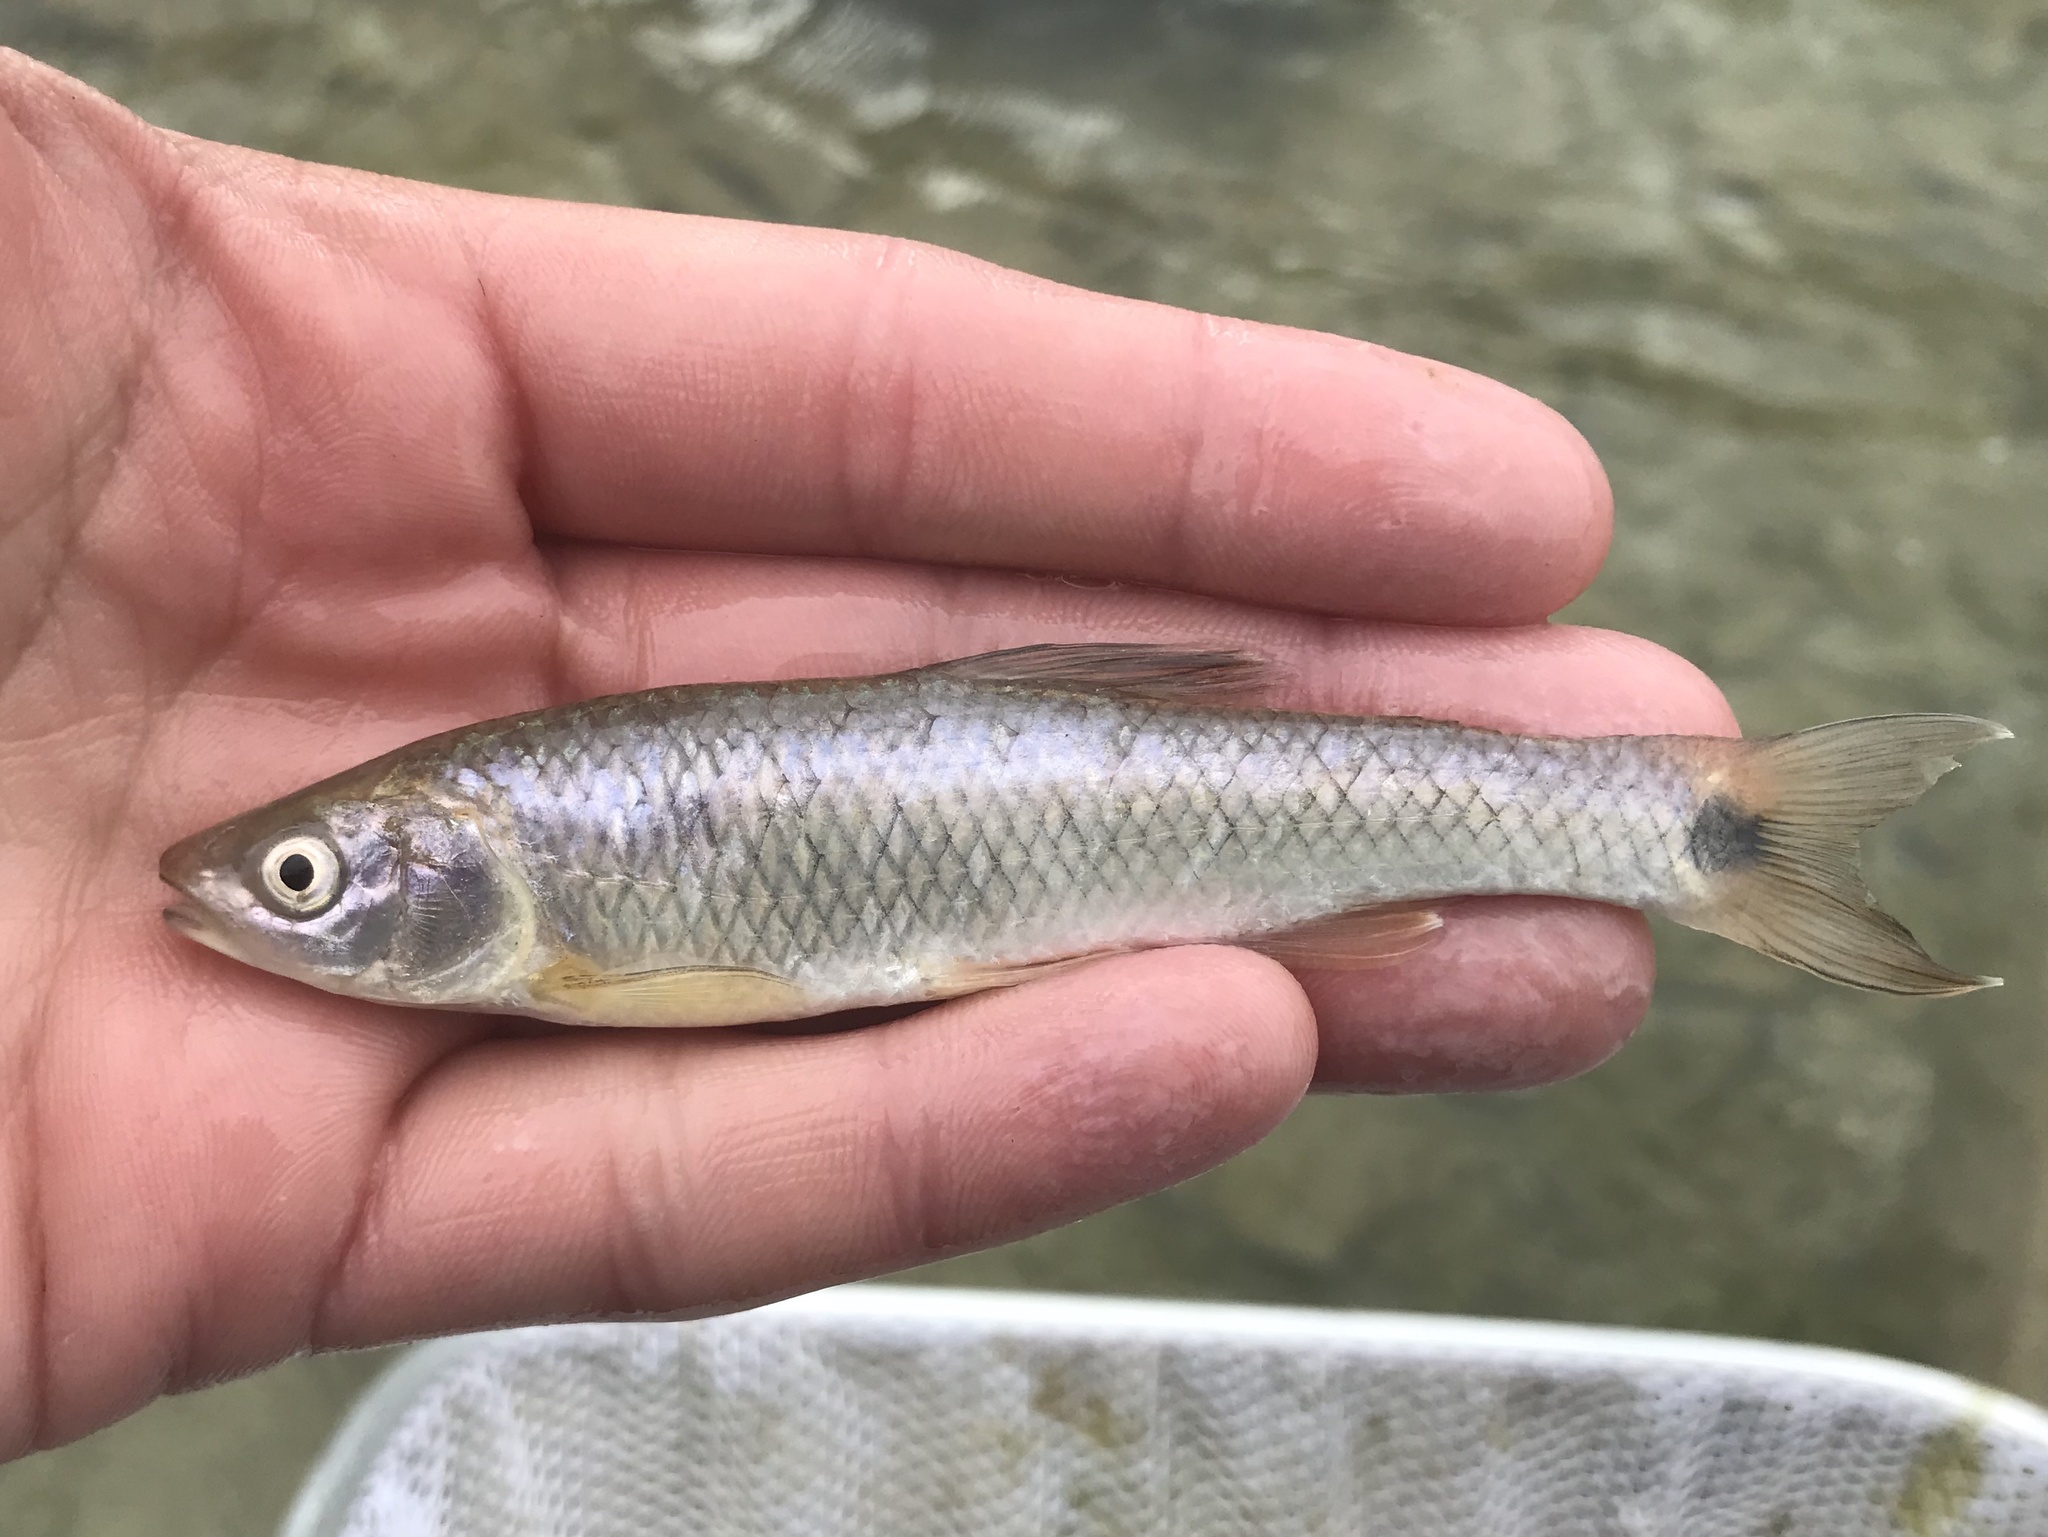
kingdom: Animalia
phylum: Chordata
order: Cypriniformes
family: Cyprinidae
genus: Cyprinella
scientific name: Cyprinella venusta
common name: Blacktail shiner
